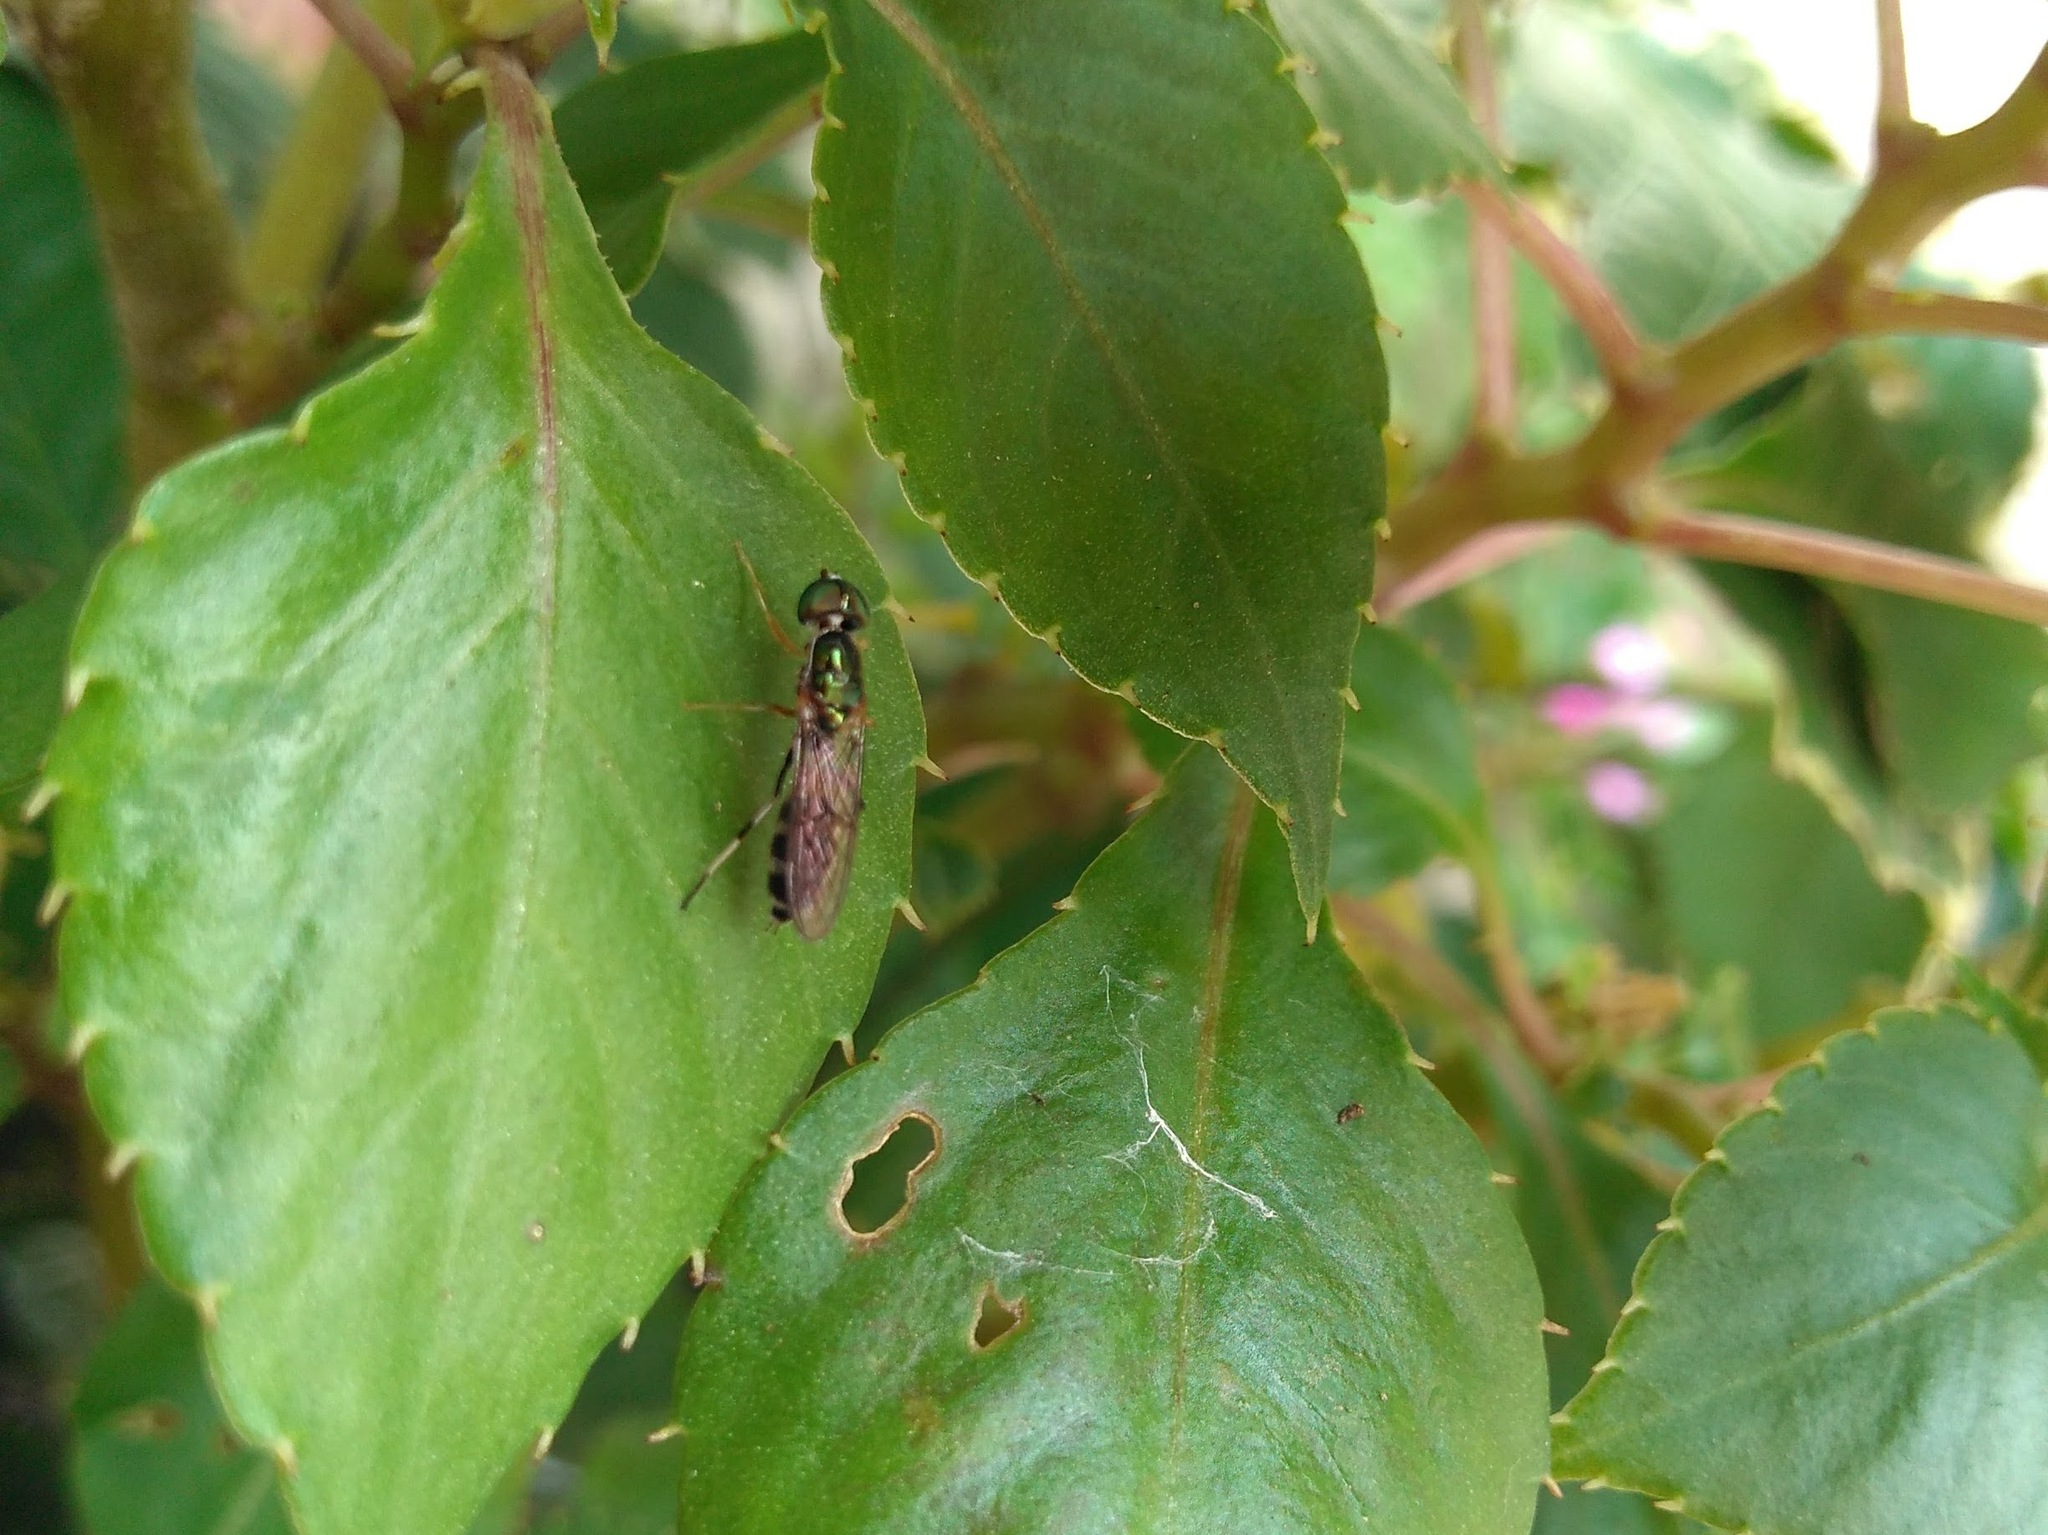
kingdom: Animalia
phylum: Arthropoda
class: Insecta
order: Diptera
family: Stratiomyidae
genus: Sargus
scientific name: Sargus fasciatus
